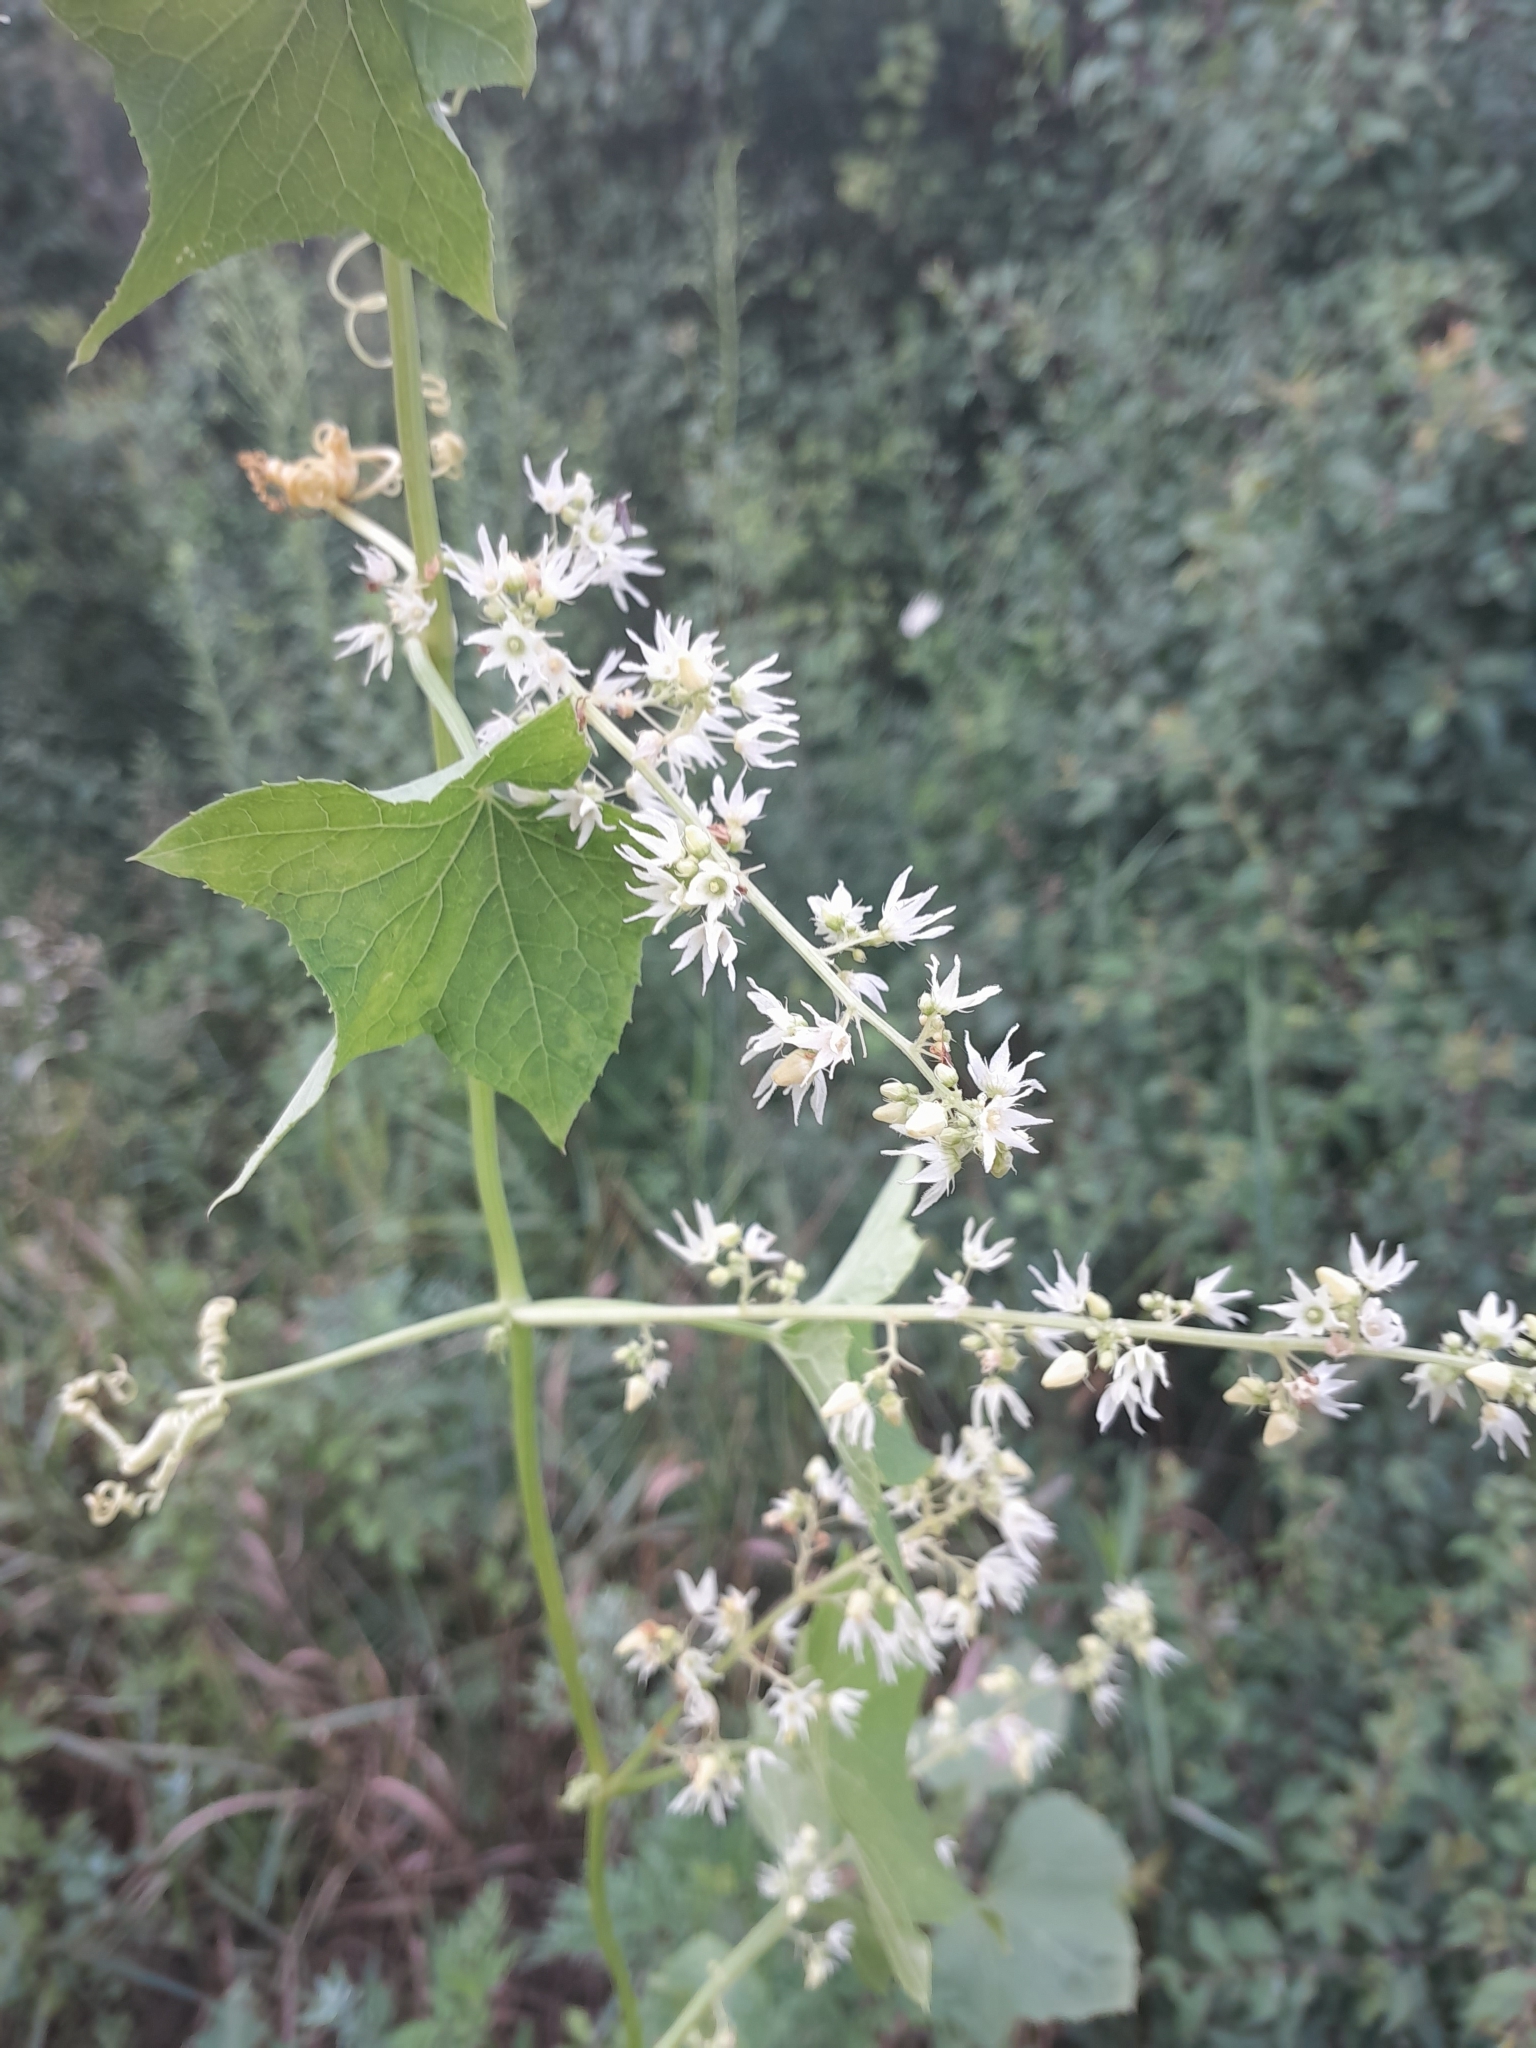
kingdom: Plantae
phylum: Tracheophyta
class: Magnoliopsida
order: Cucurbitales
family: Cucurbitaceae
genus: Echinocystis
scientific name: Echinocystis lobata
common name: Wild cucumber
